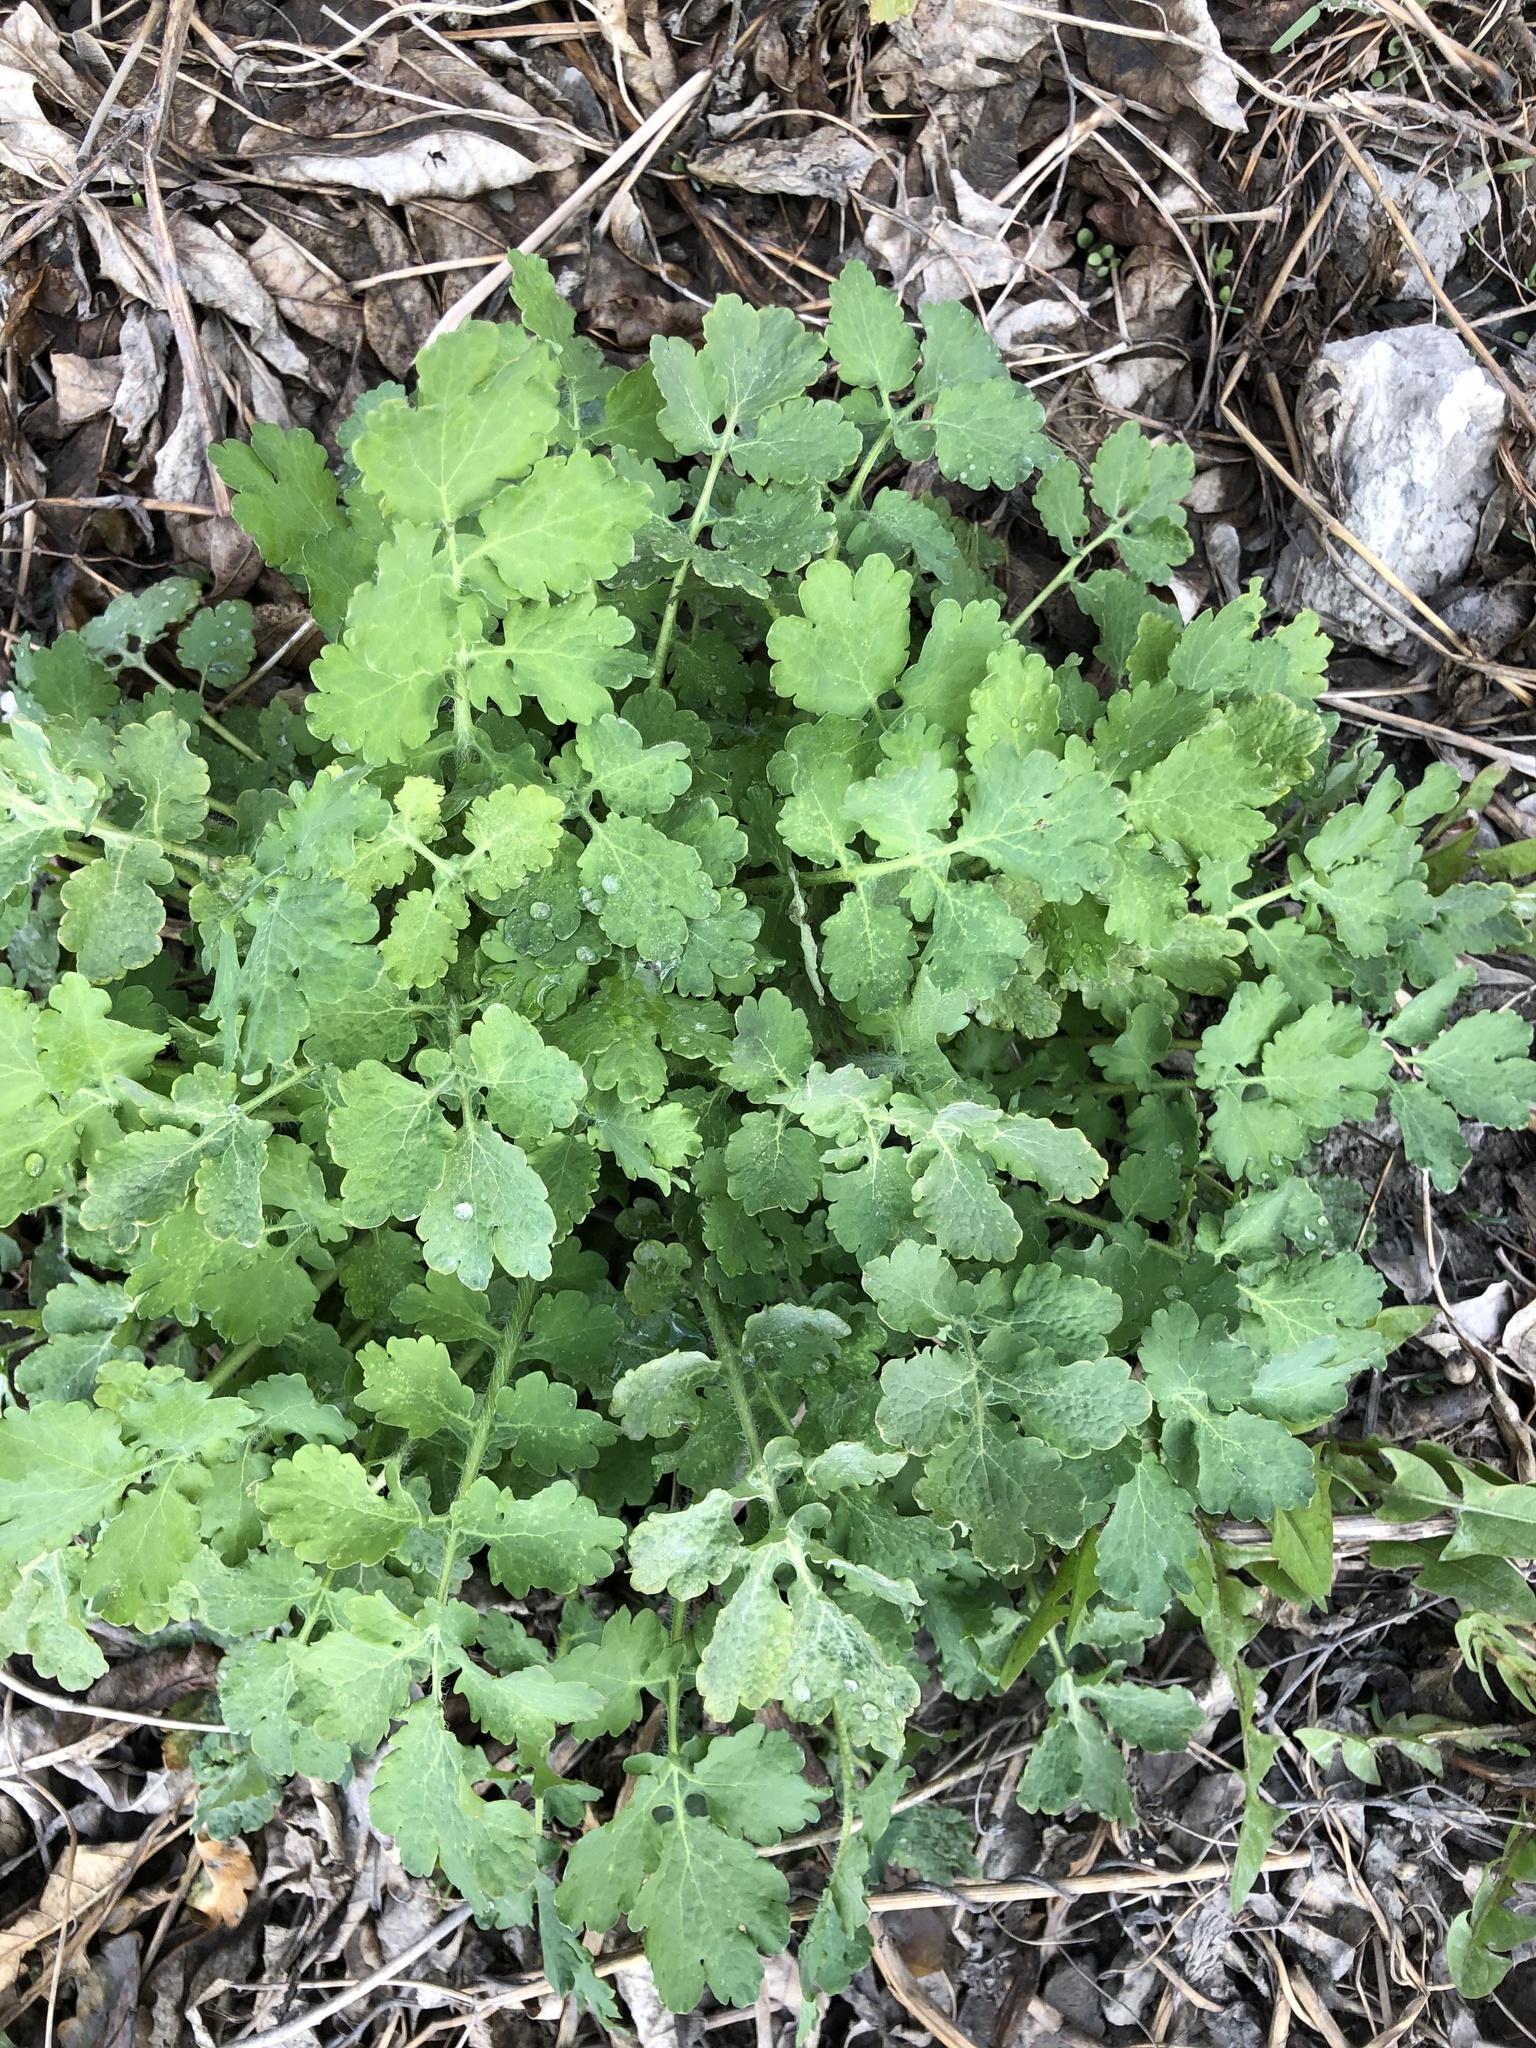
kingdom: Plantae
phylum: Tracheophyta
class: Magnoliopsida
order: Ranunculales
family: Papaveraceae
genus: Chelidonium
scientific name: Chelidonium majus
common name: Greater celandine
